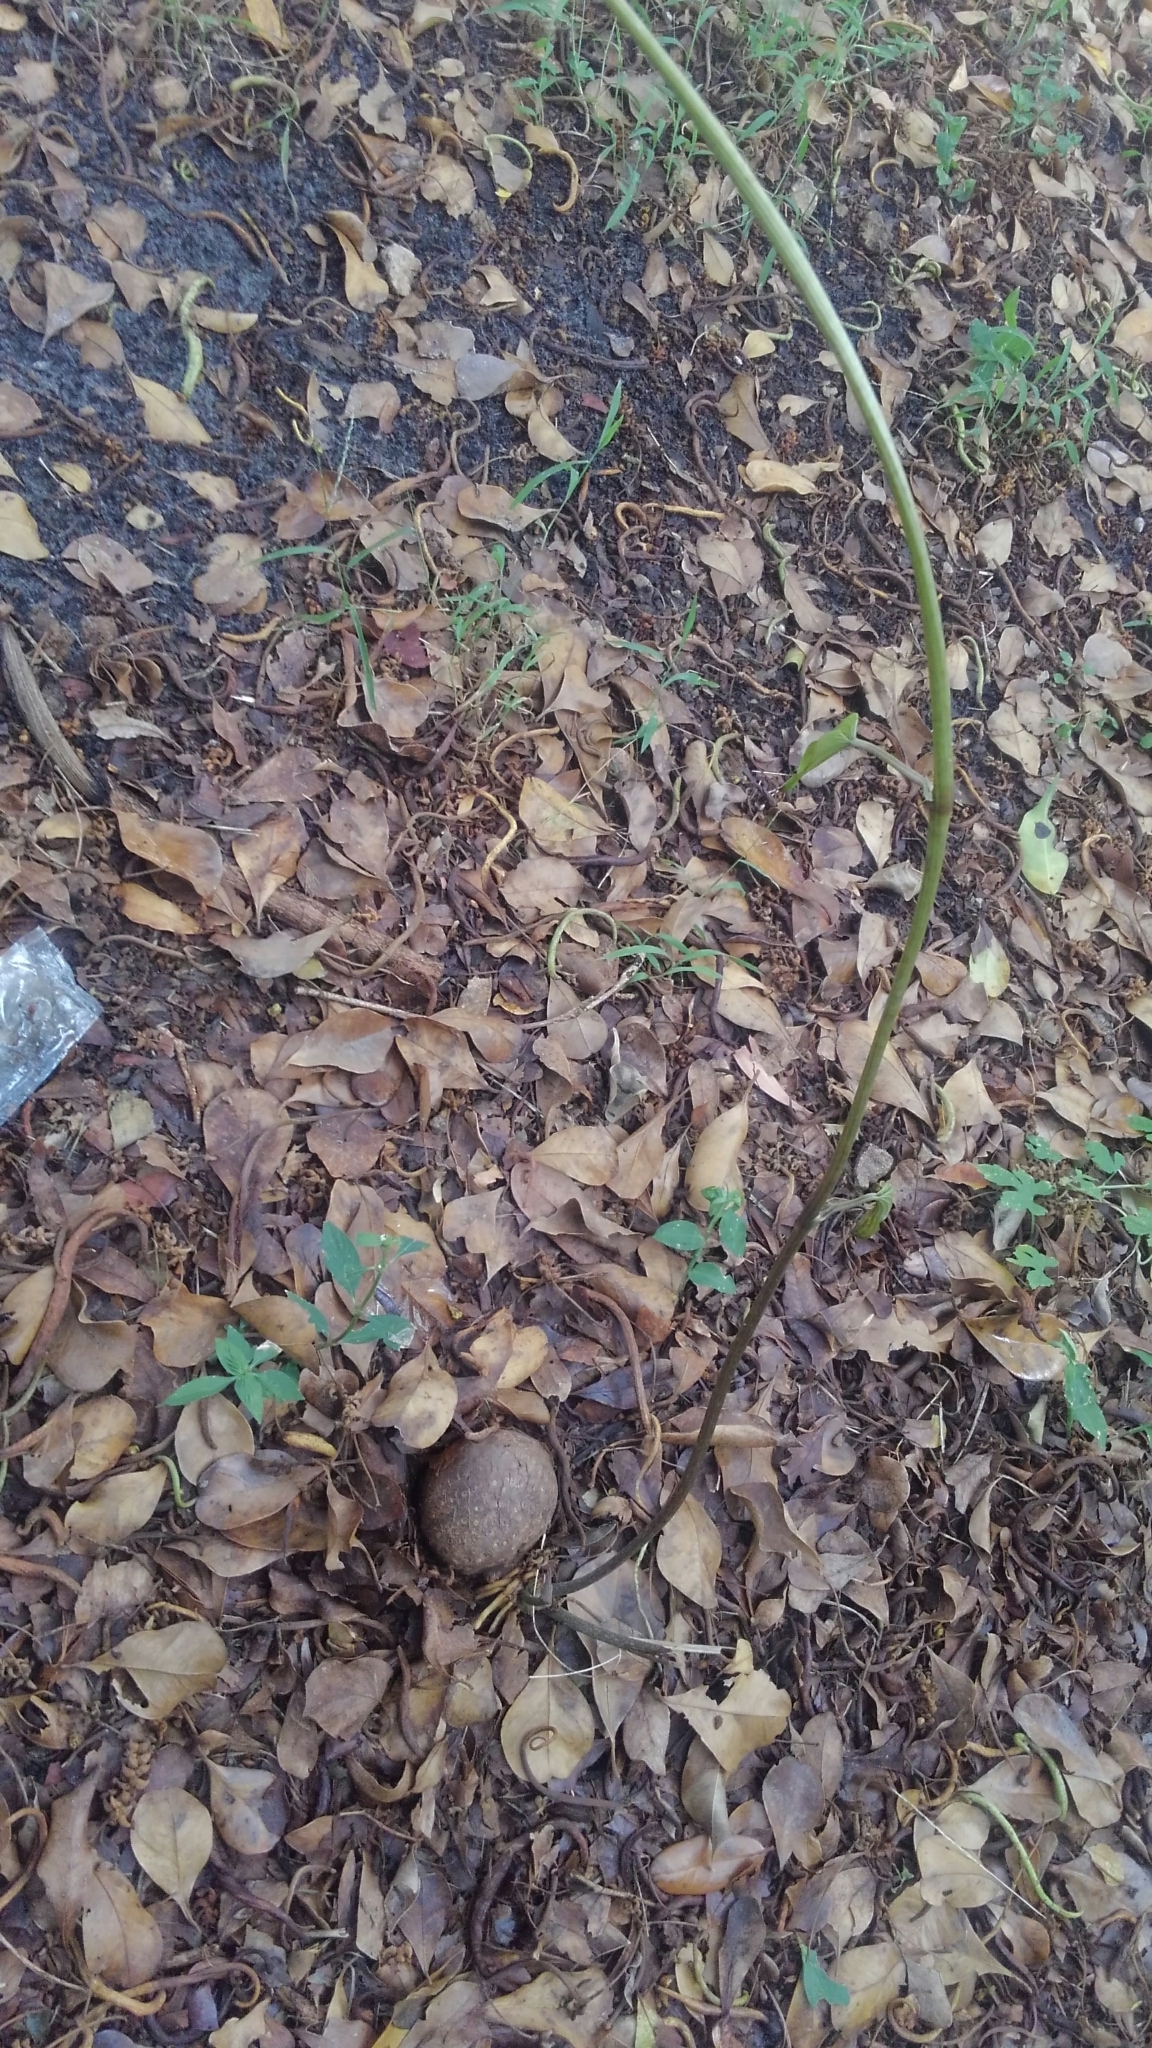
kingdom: Plantae
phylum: Tracheophyta
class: Liliopsida
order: Dioscoreales
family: Dioscoreaceae
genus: Dioscorea
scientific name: Dioscorea bulbifera
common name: Air yam
